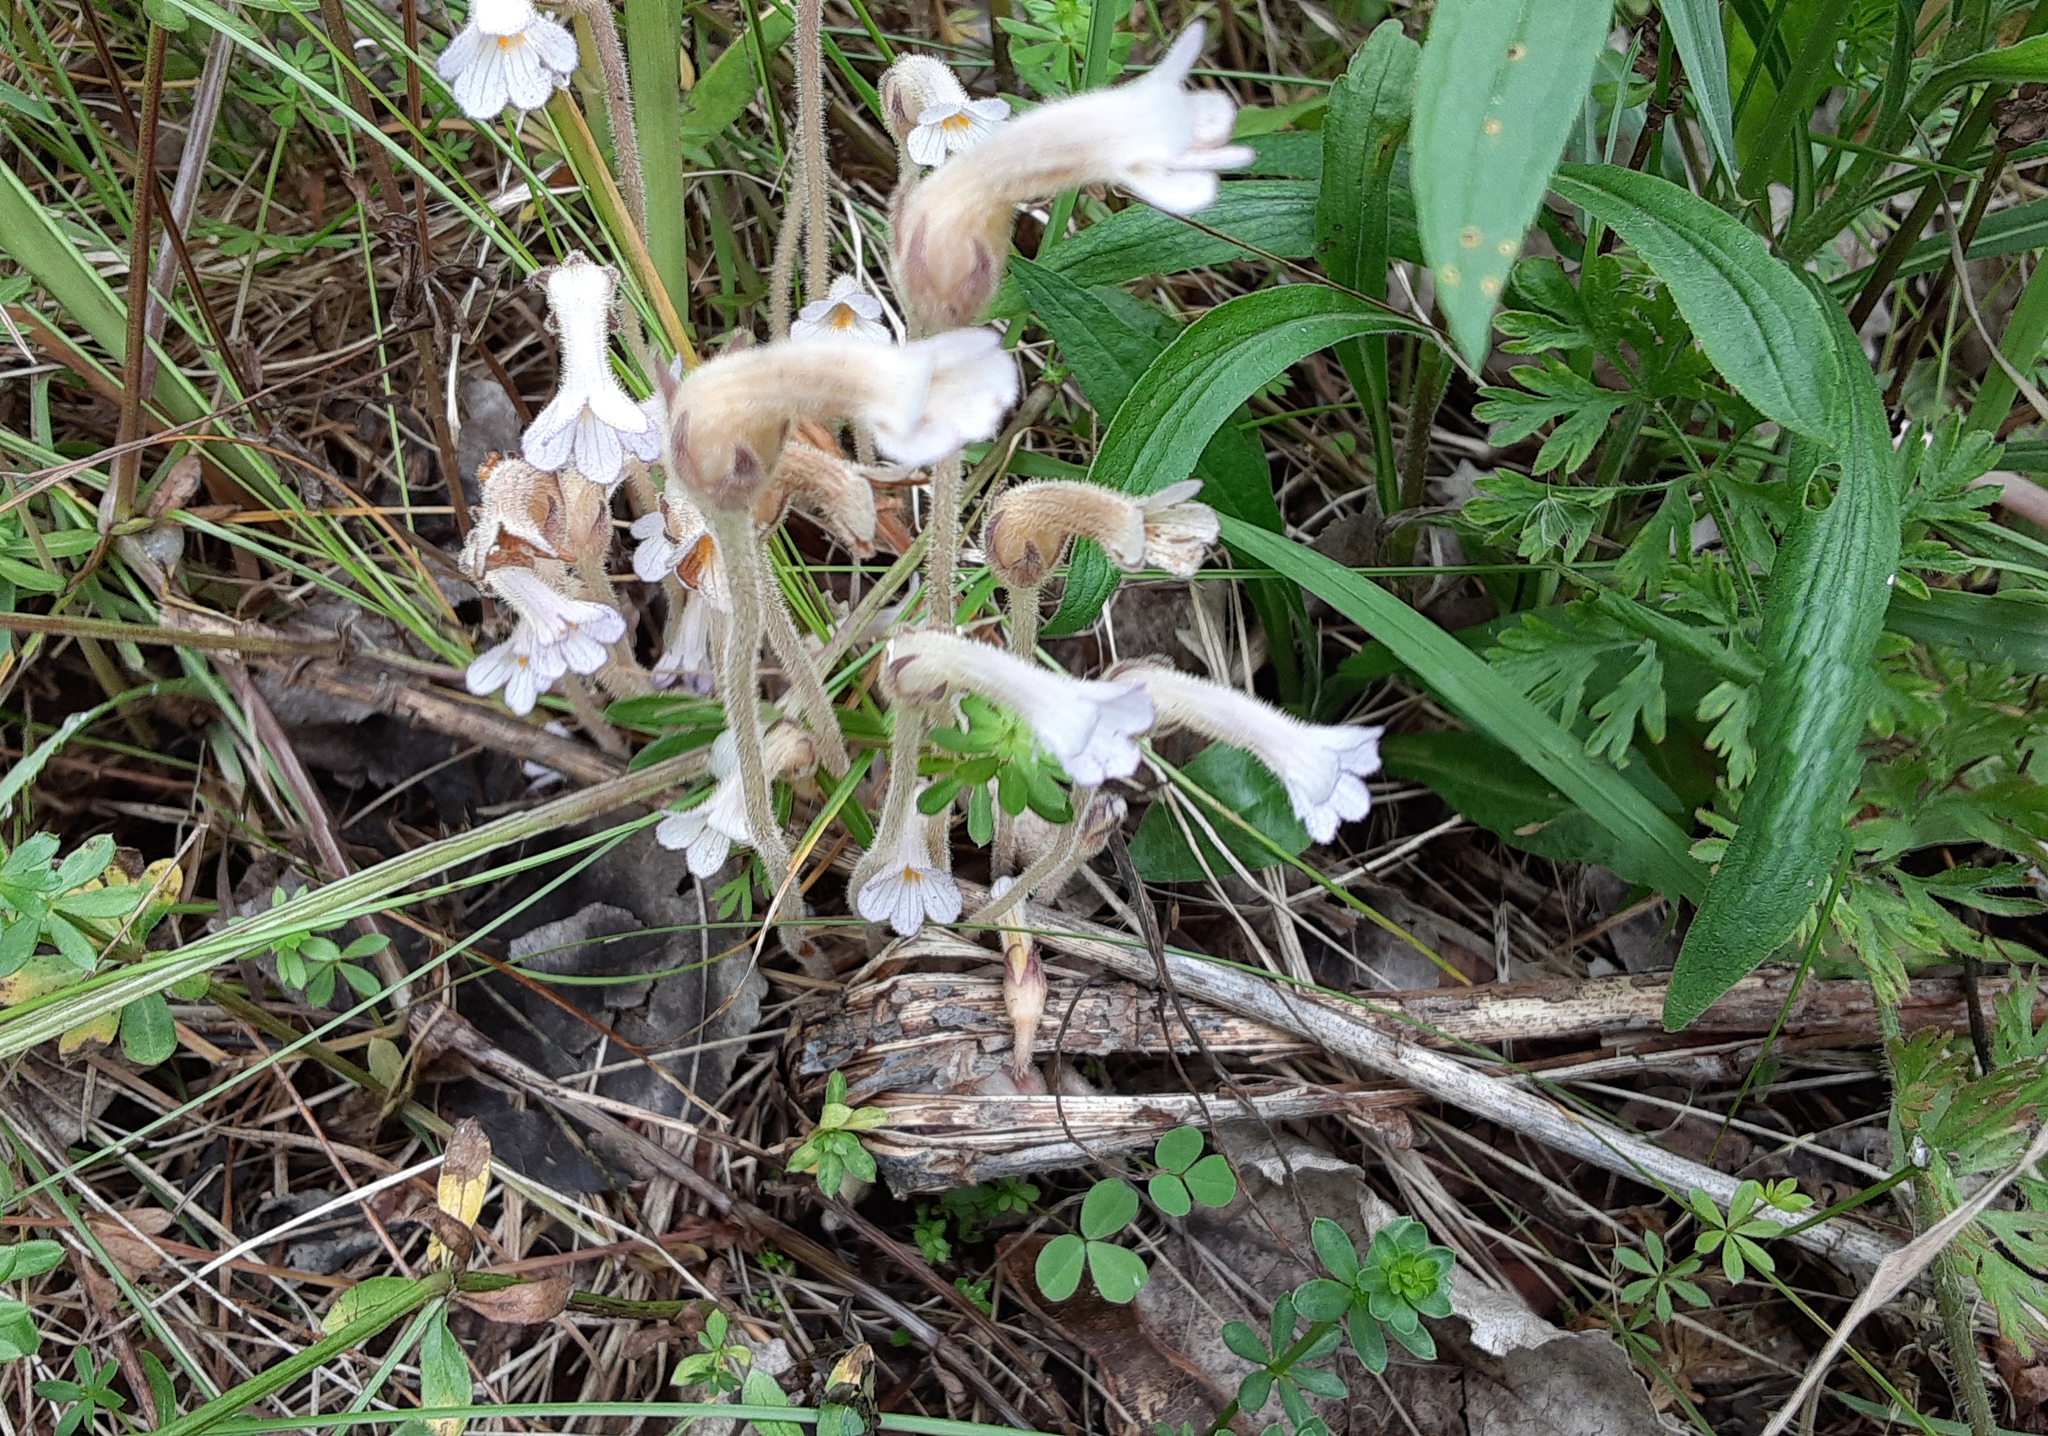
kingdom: Plantae
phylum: Tracheophyta
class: Magnoliopsida
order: Lamiales
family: Orobanchaceae
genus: Aphyllon
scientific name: Aphyllon uniflorum
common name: One-flowered broomrape
